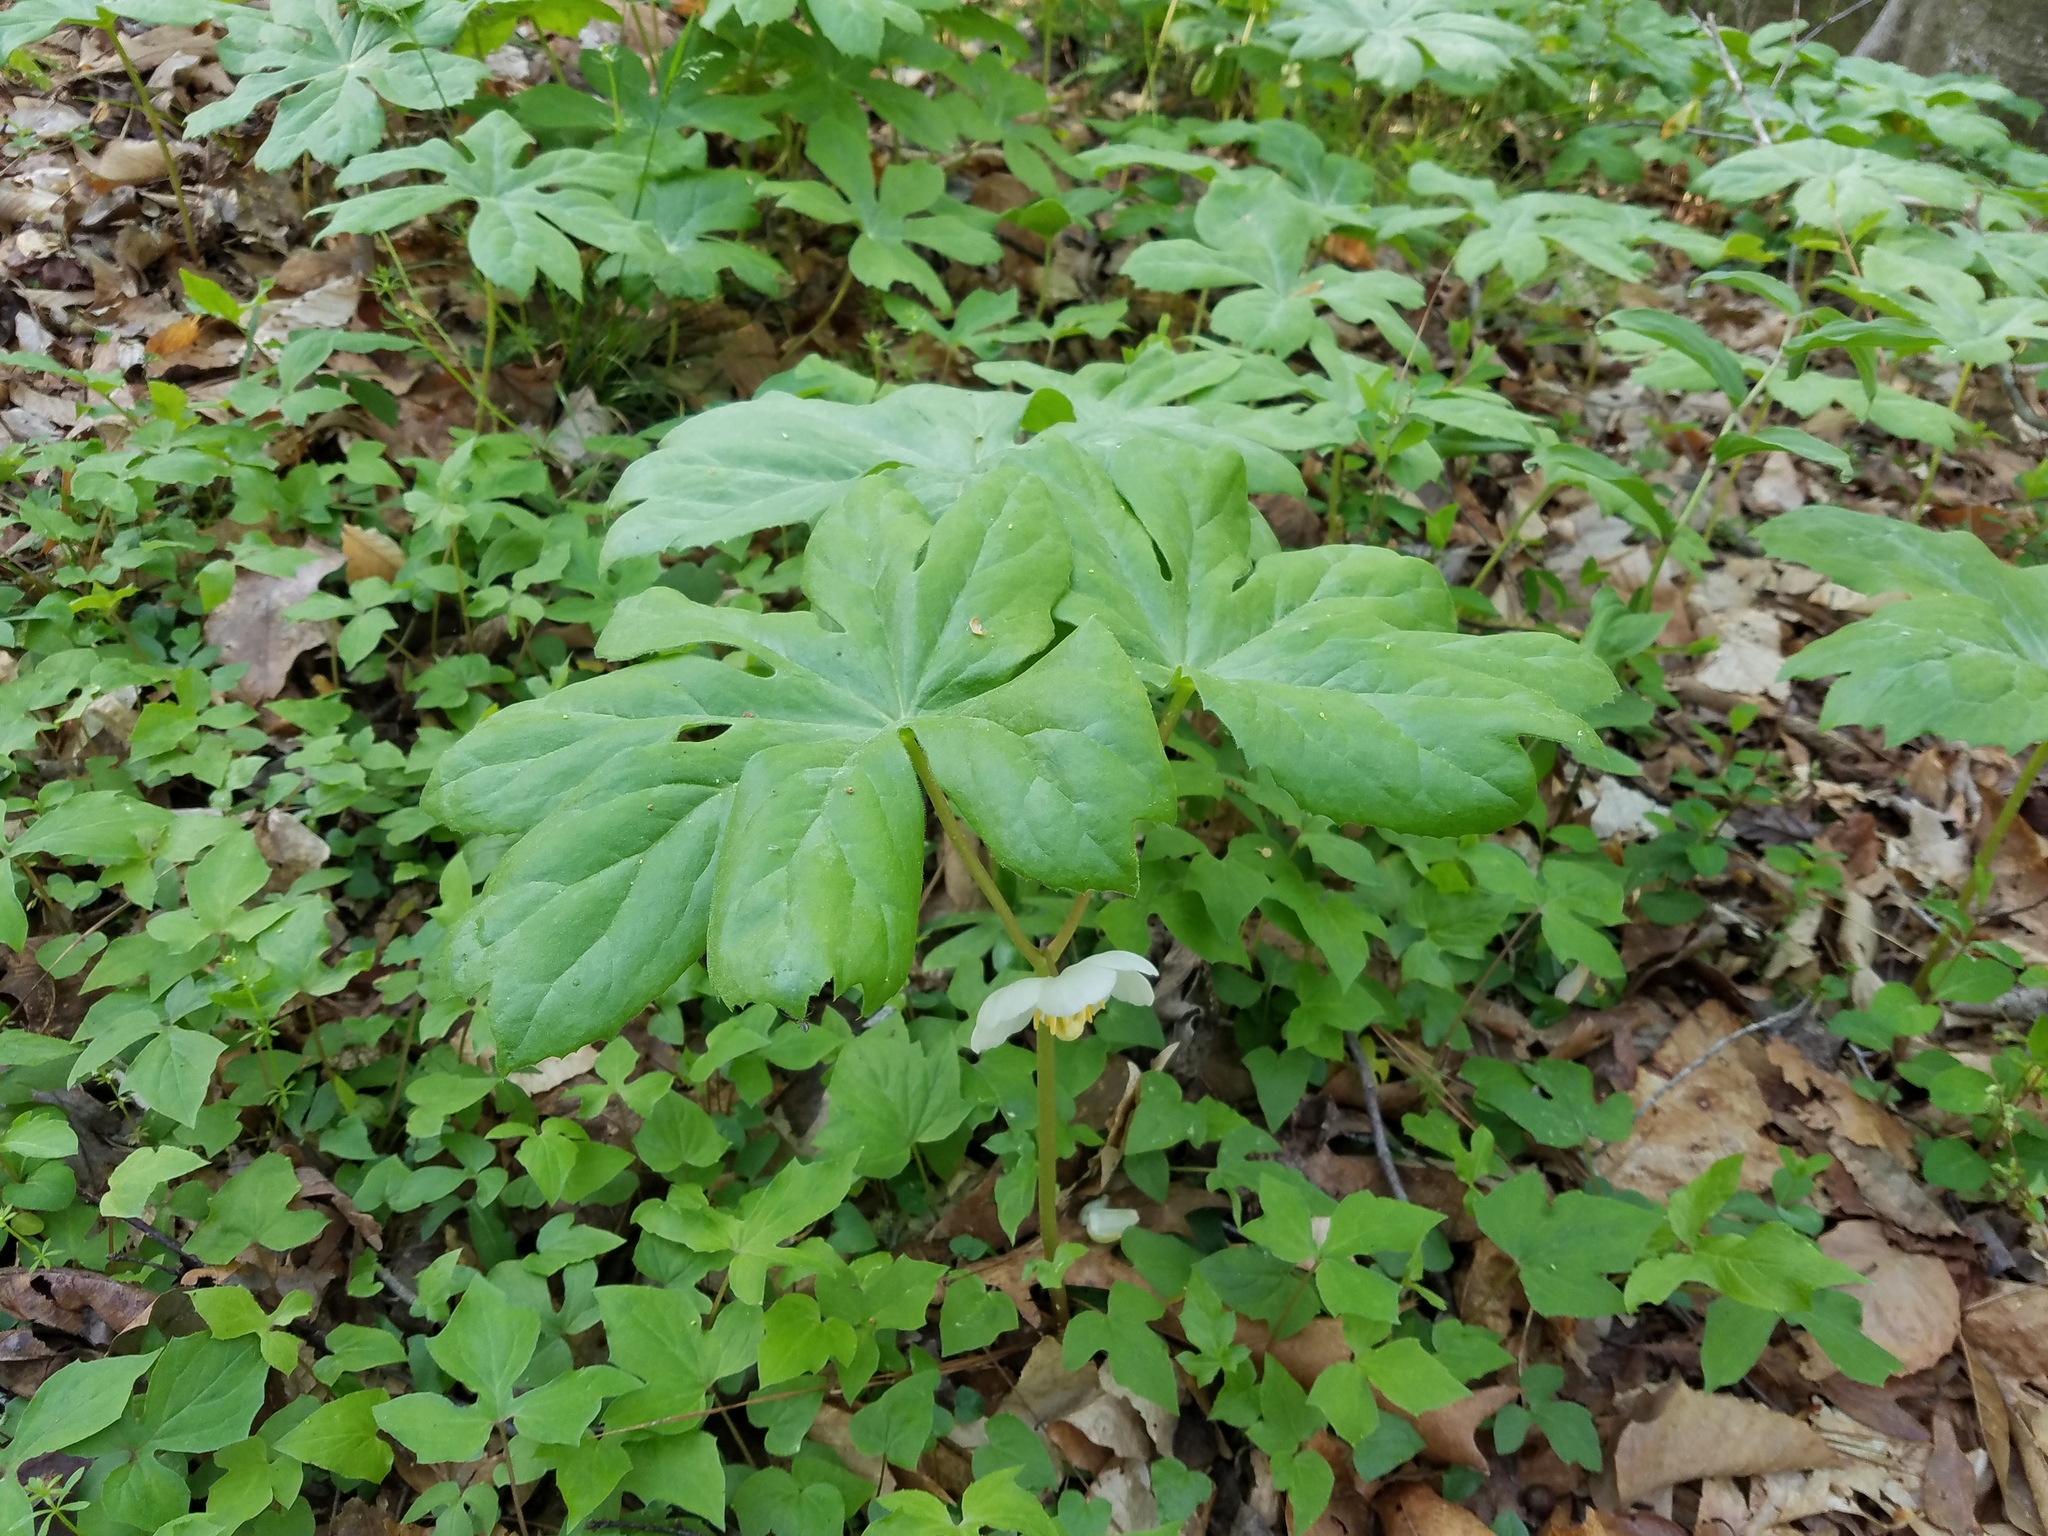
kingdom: Plantae
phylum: Tracheophyta
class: Magnoliopsida
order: Ranunculales
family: Berberidaceae
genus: Podophyllum
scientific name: Podophyllum peltatum
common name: Wild mandrake
